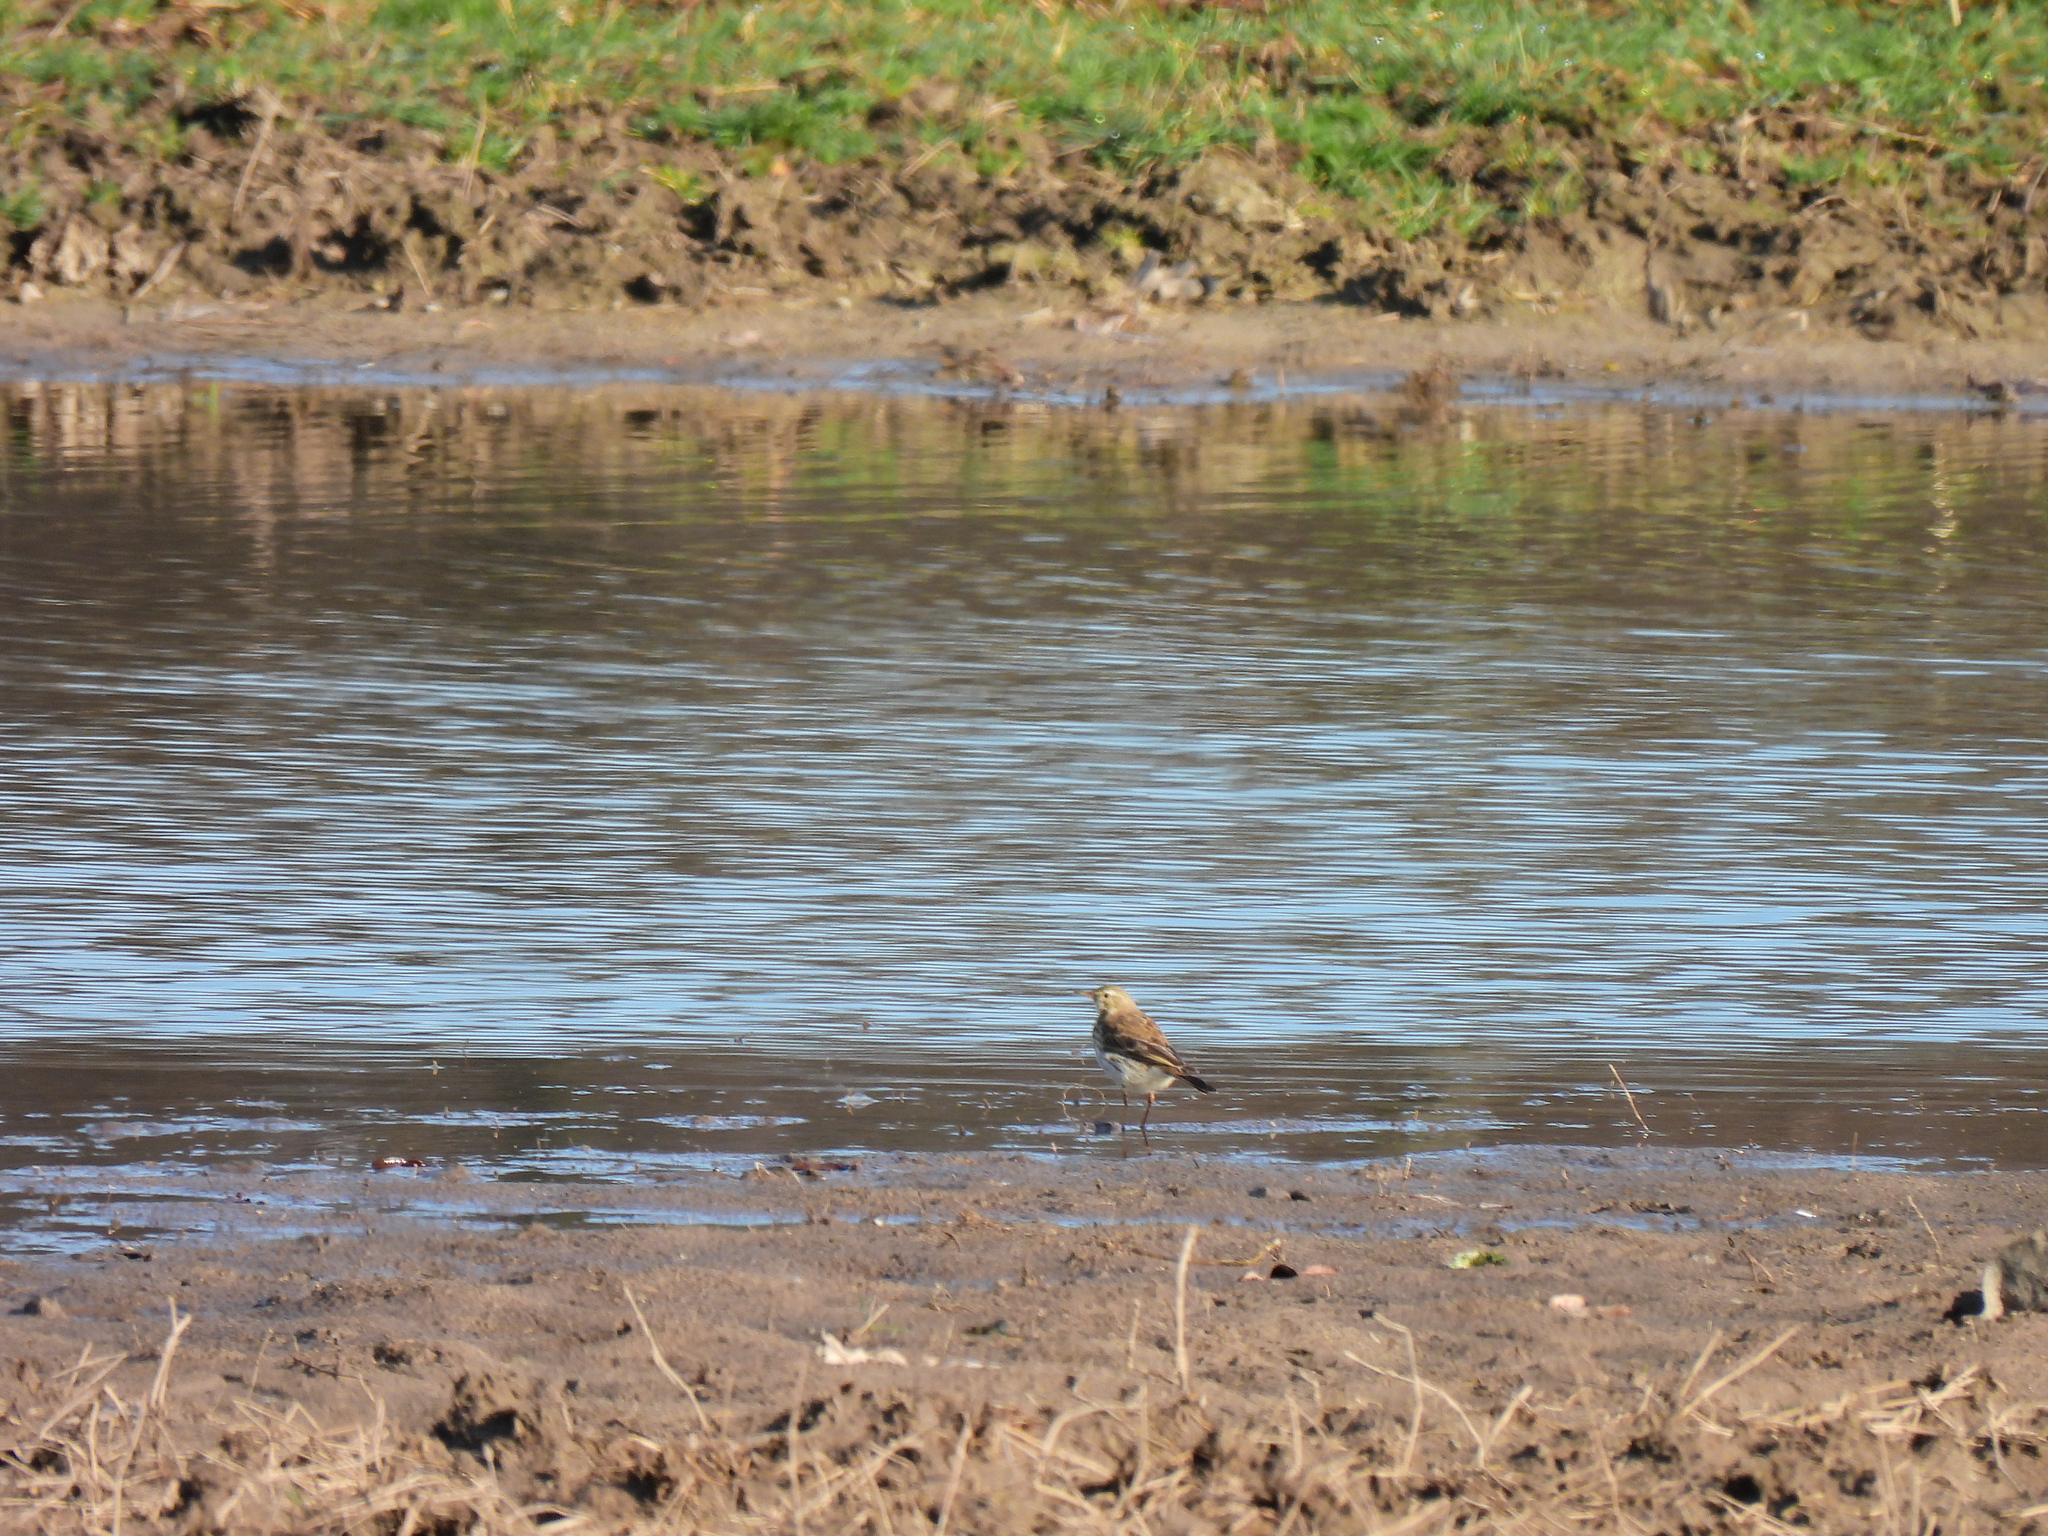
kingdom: Animalia
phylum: Chordata
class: Aves
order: Passeriformes
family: Motacillidae
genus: Anthus
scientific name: Anthus spinoletta
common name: Water pipit
